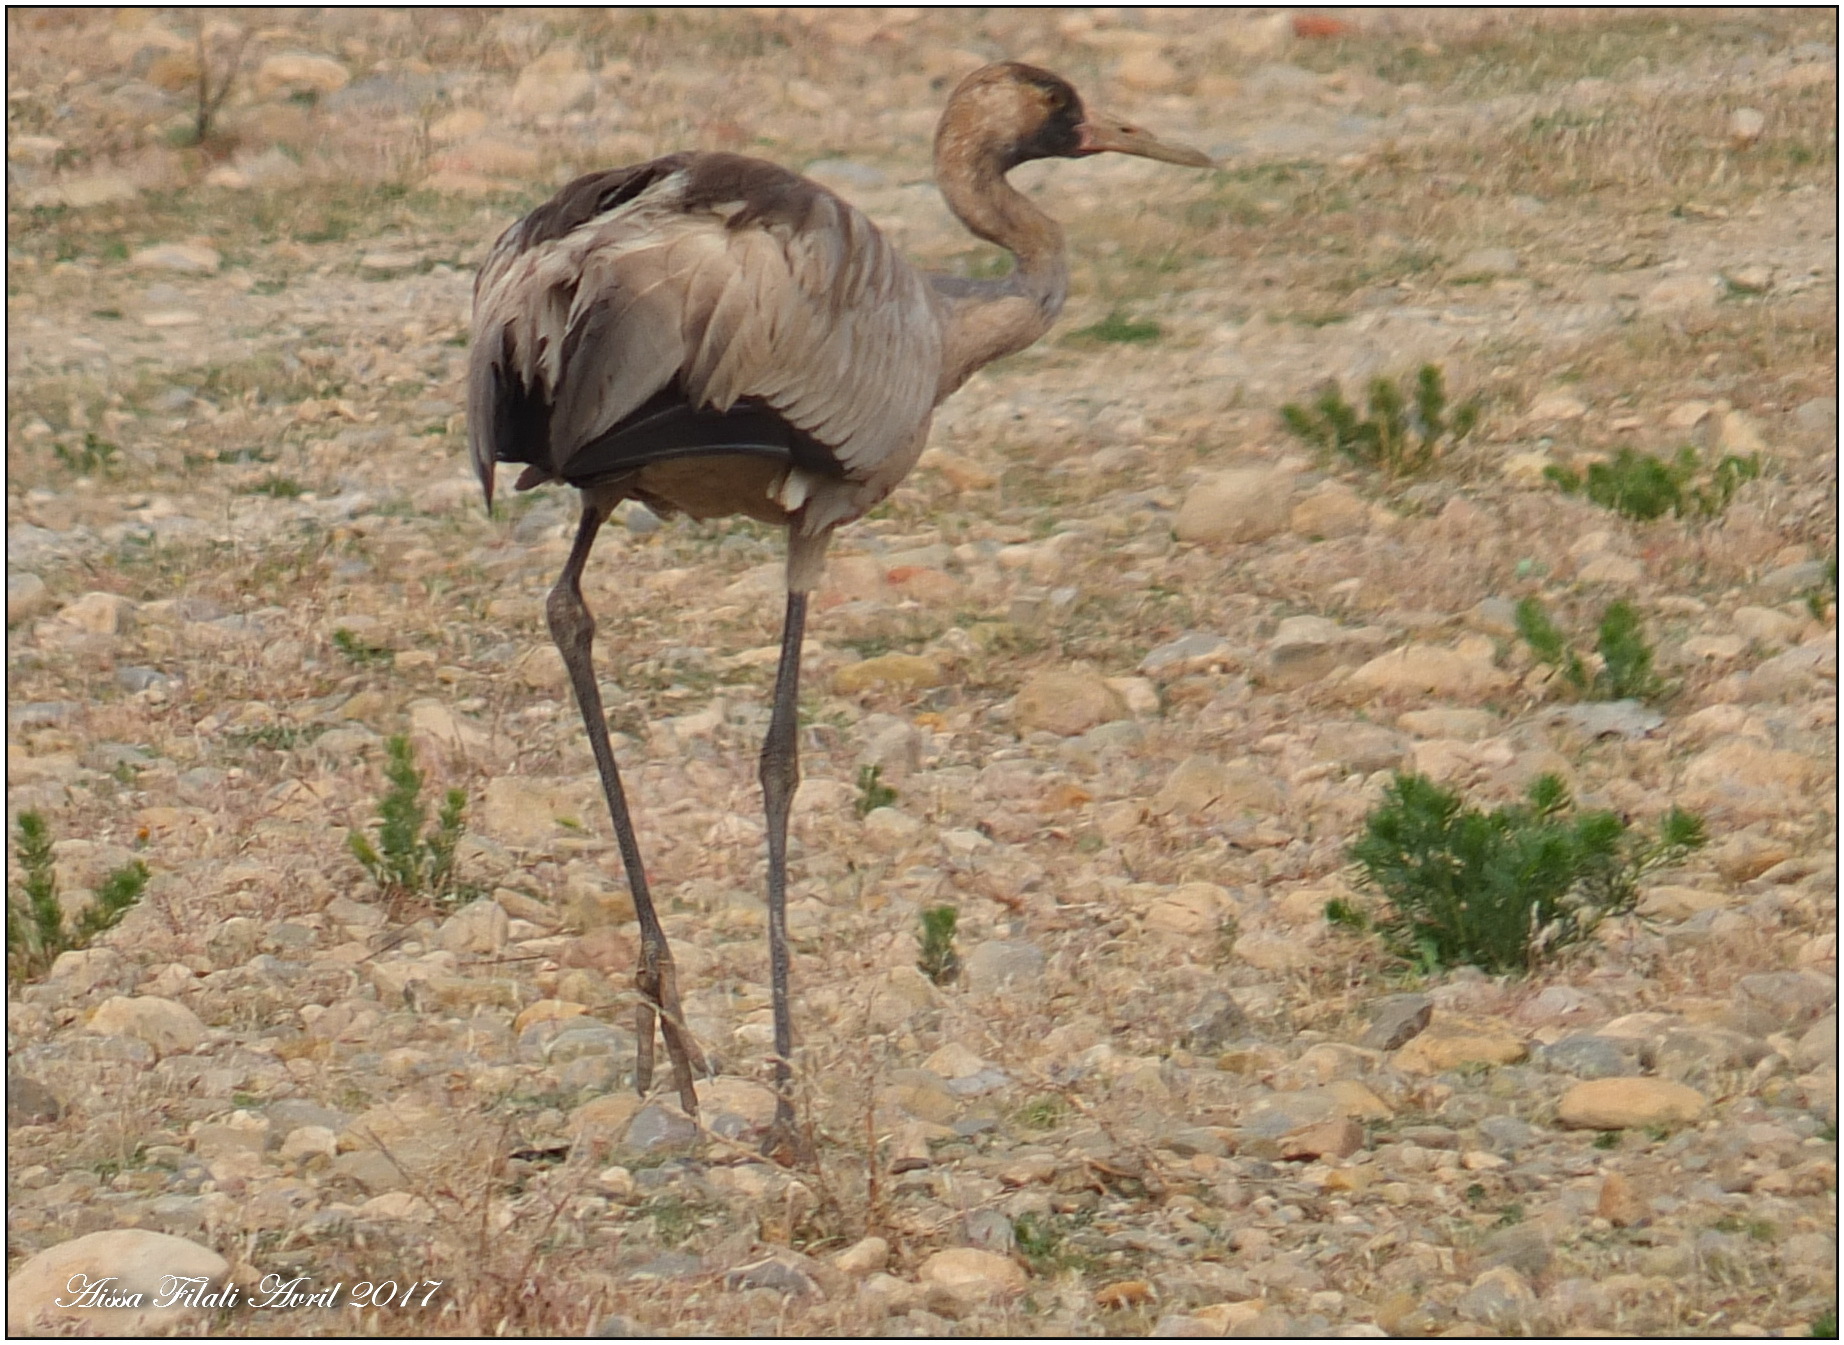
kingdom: Animalia
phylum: Chordata
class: Aves
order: Gruiformes
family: Gruidae
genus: Grus
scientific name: Grus grus
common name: Common crane
